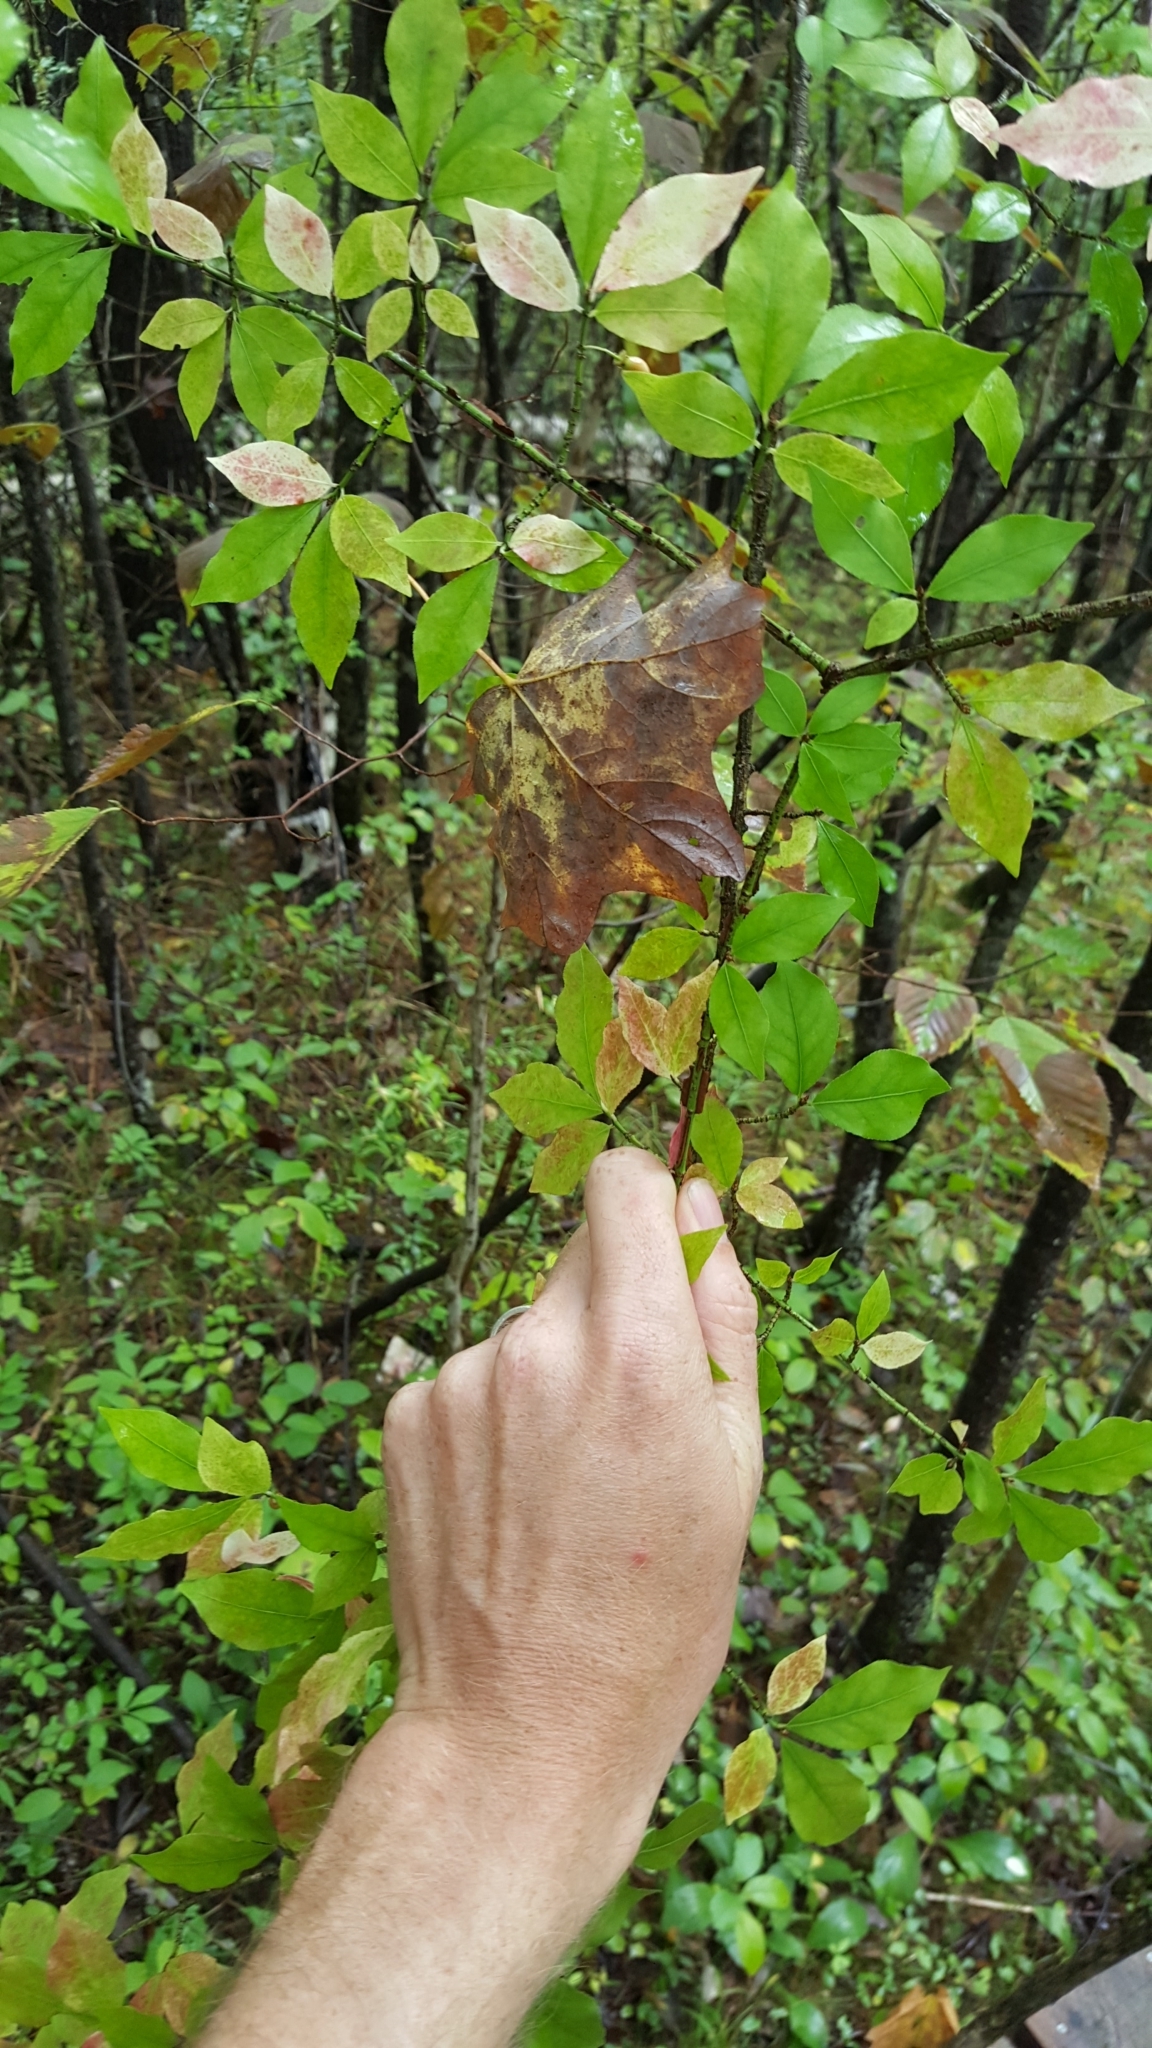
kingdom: Plantae
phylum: Tracheophyta
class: Magnoliopsida
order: Celastrales
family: Celastraceae
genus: Euonymus
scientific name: Euonymus alatus
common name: Winged euonymus
